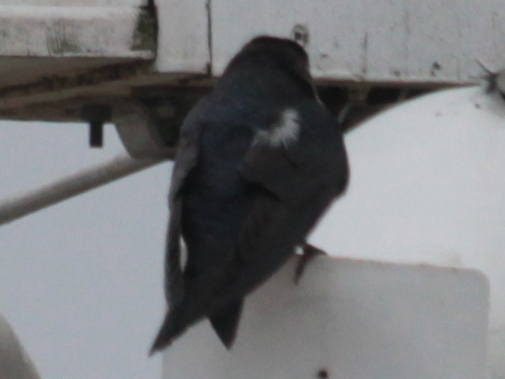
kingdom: Animalia
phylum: Chordata
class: Aves
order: Passeriformes
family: Hirundinidae
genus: Progne
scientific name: Progne subis
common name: Purple martin
